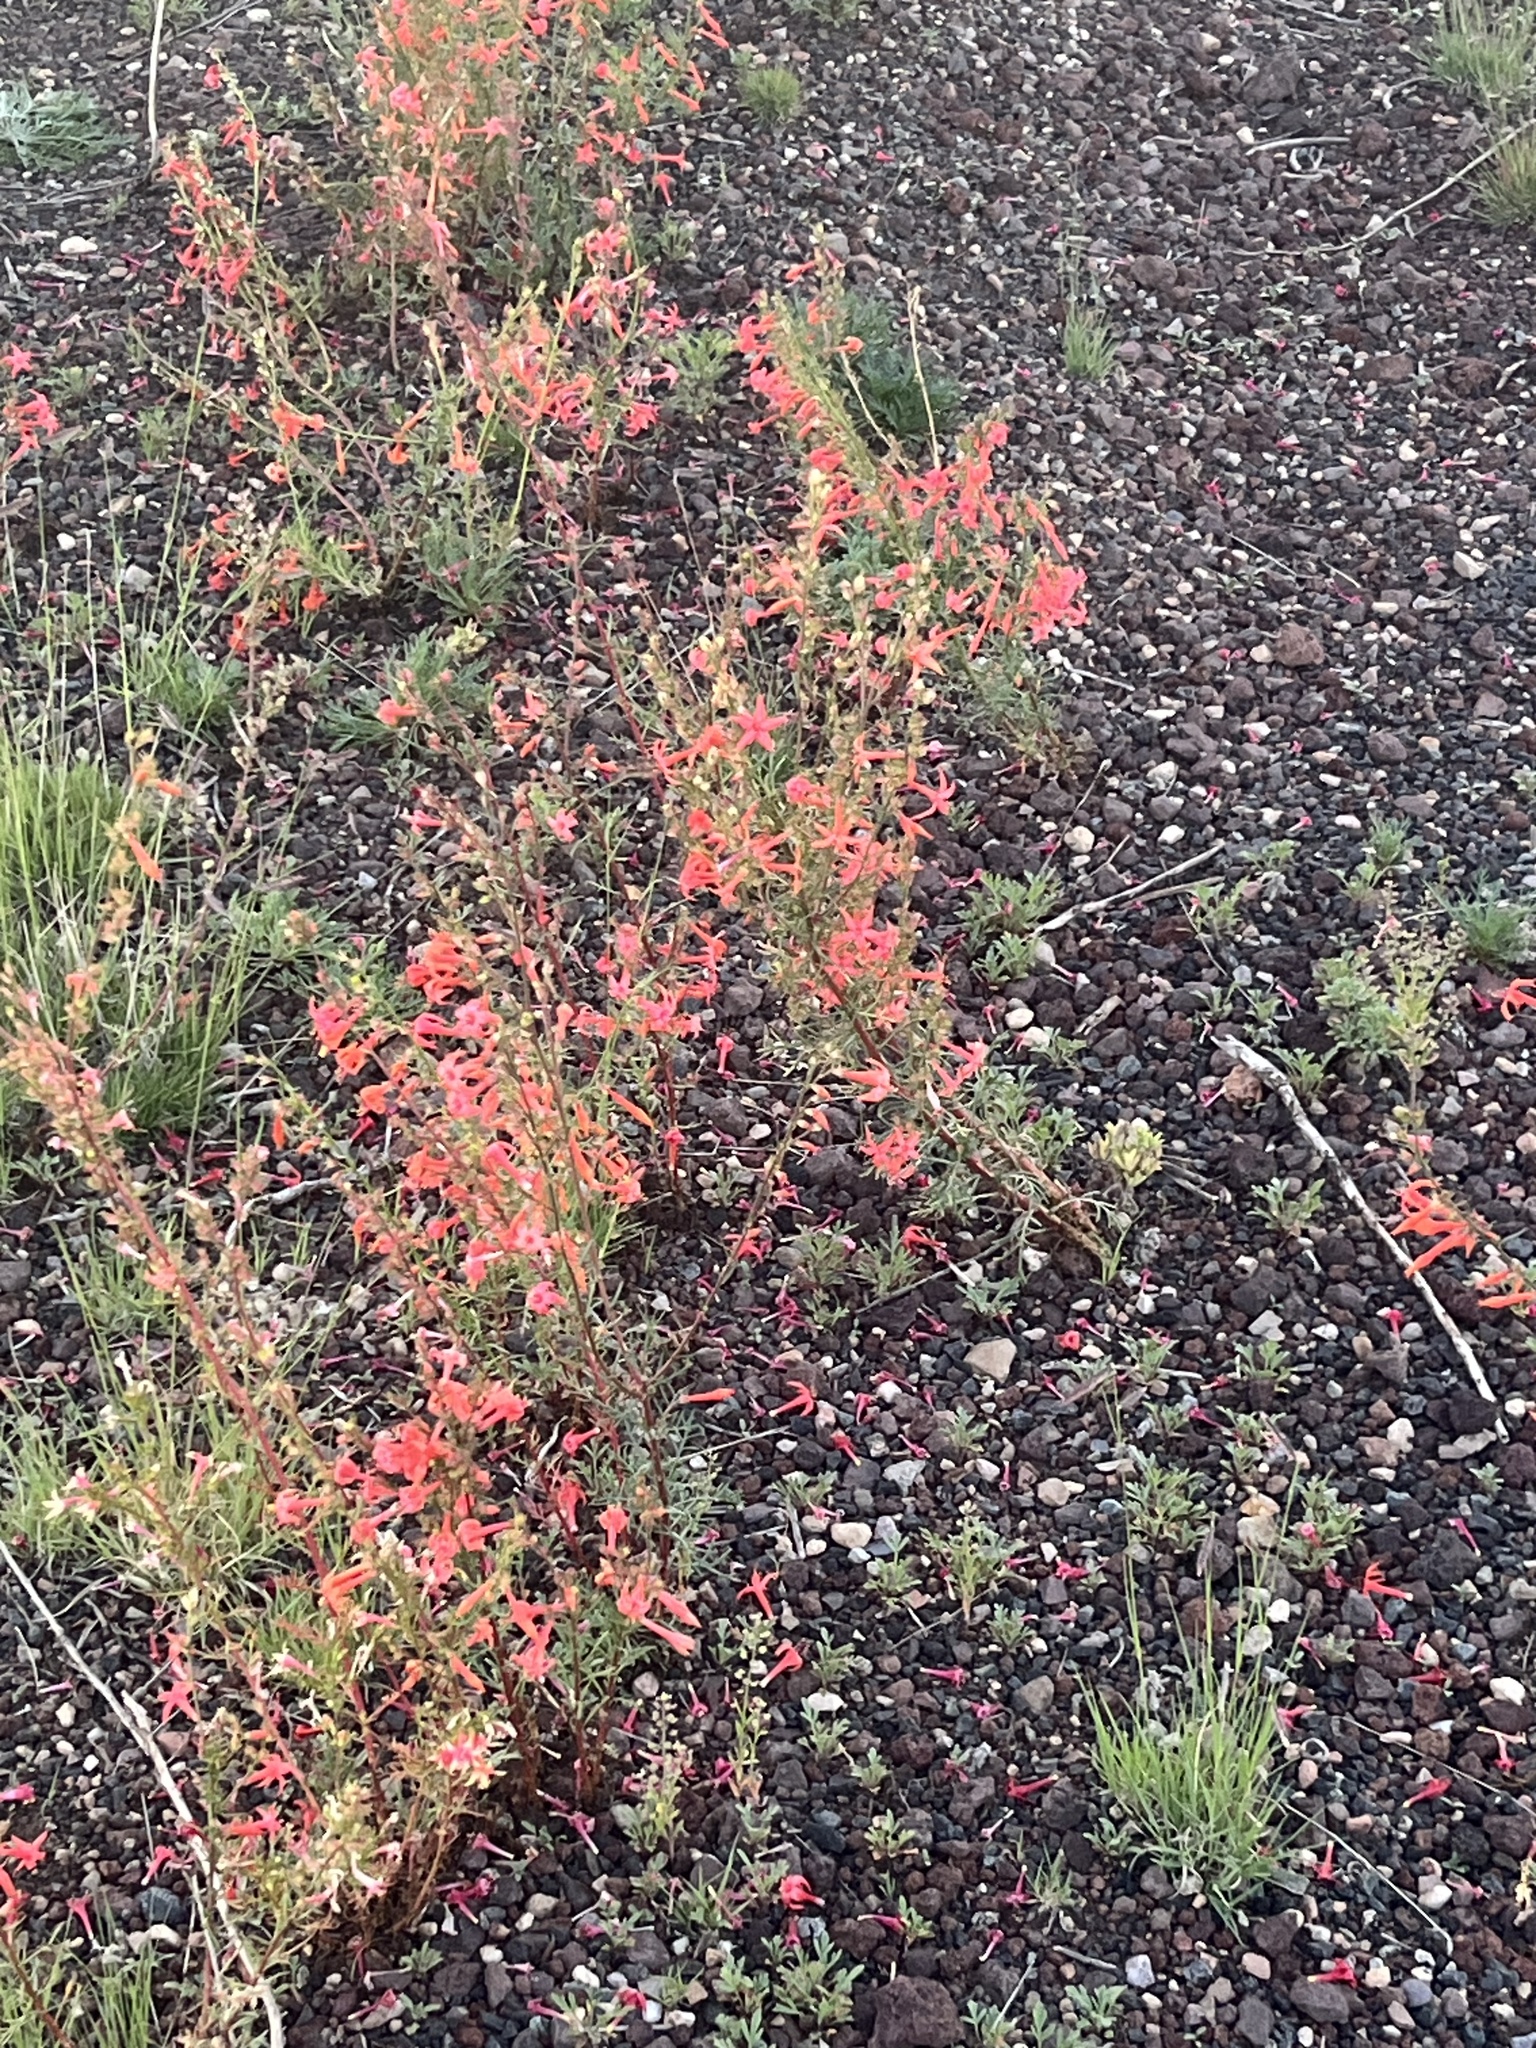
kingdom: Plantae
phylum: Tracheophyta
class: Magnoliopsida
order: Ericales
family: Polemoniaceae
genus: Ipomopsis
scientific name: Ipomopsis aggregata
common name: Scarlet gilia
